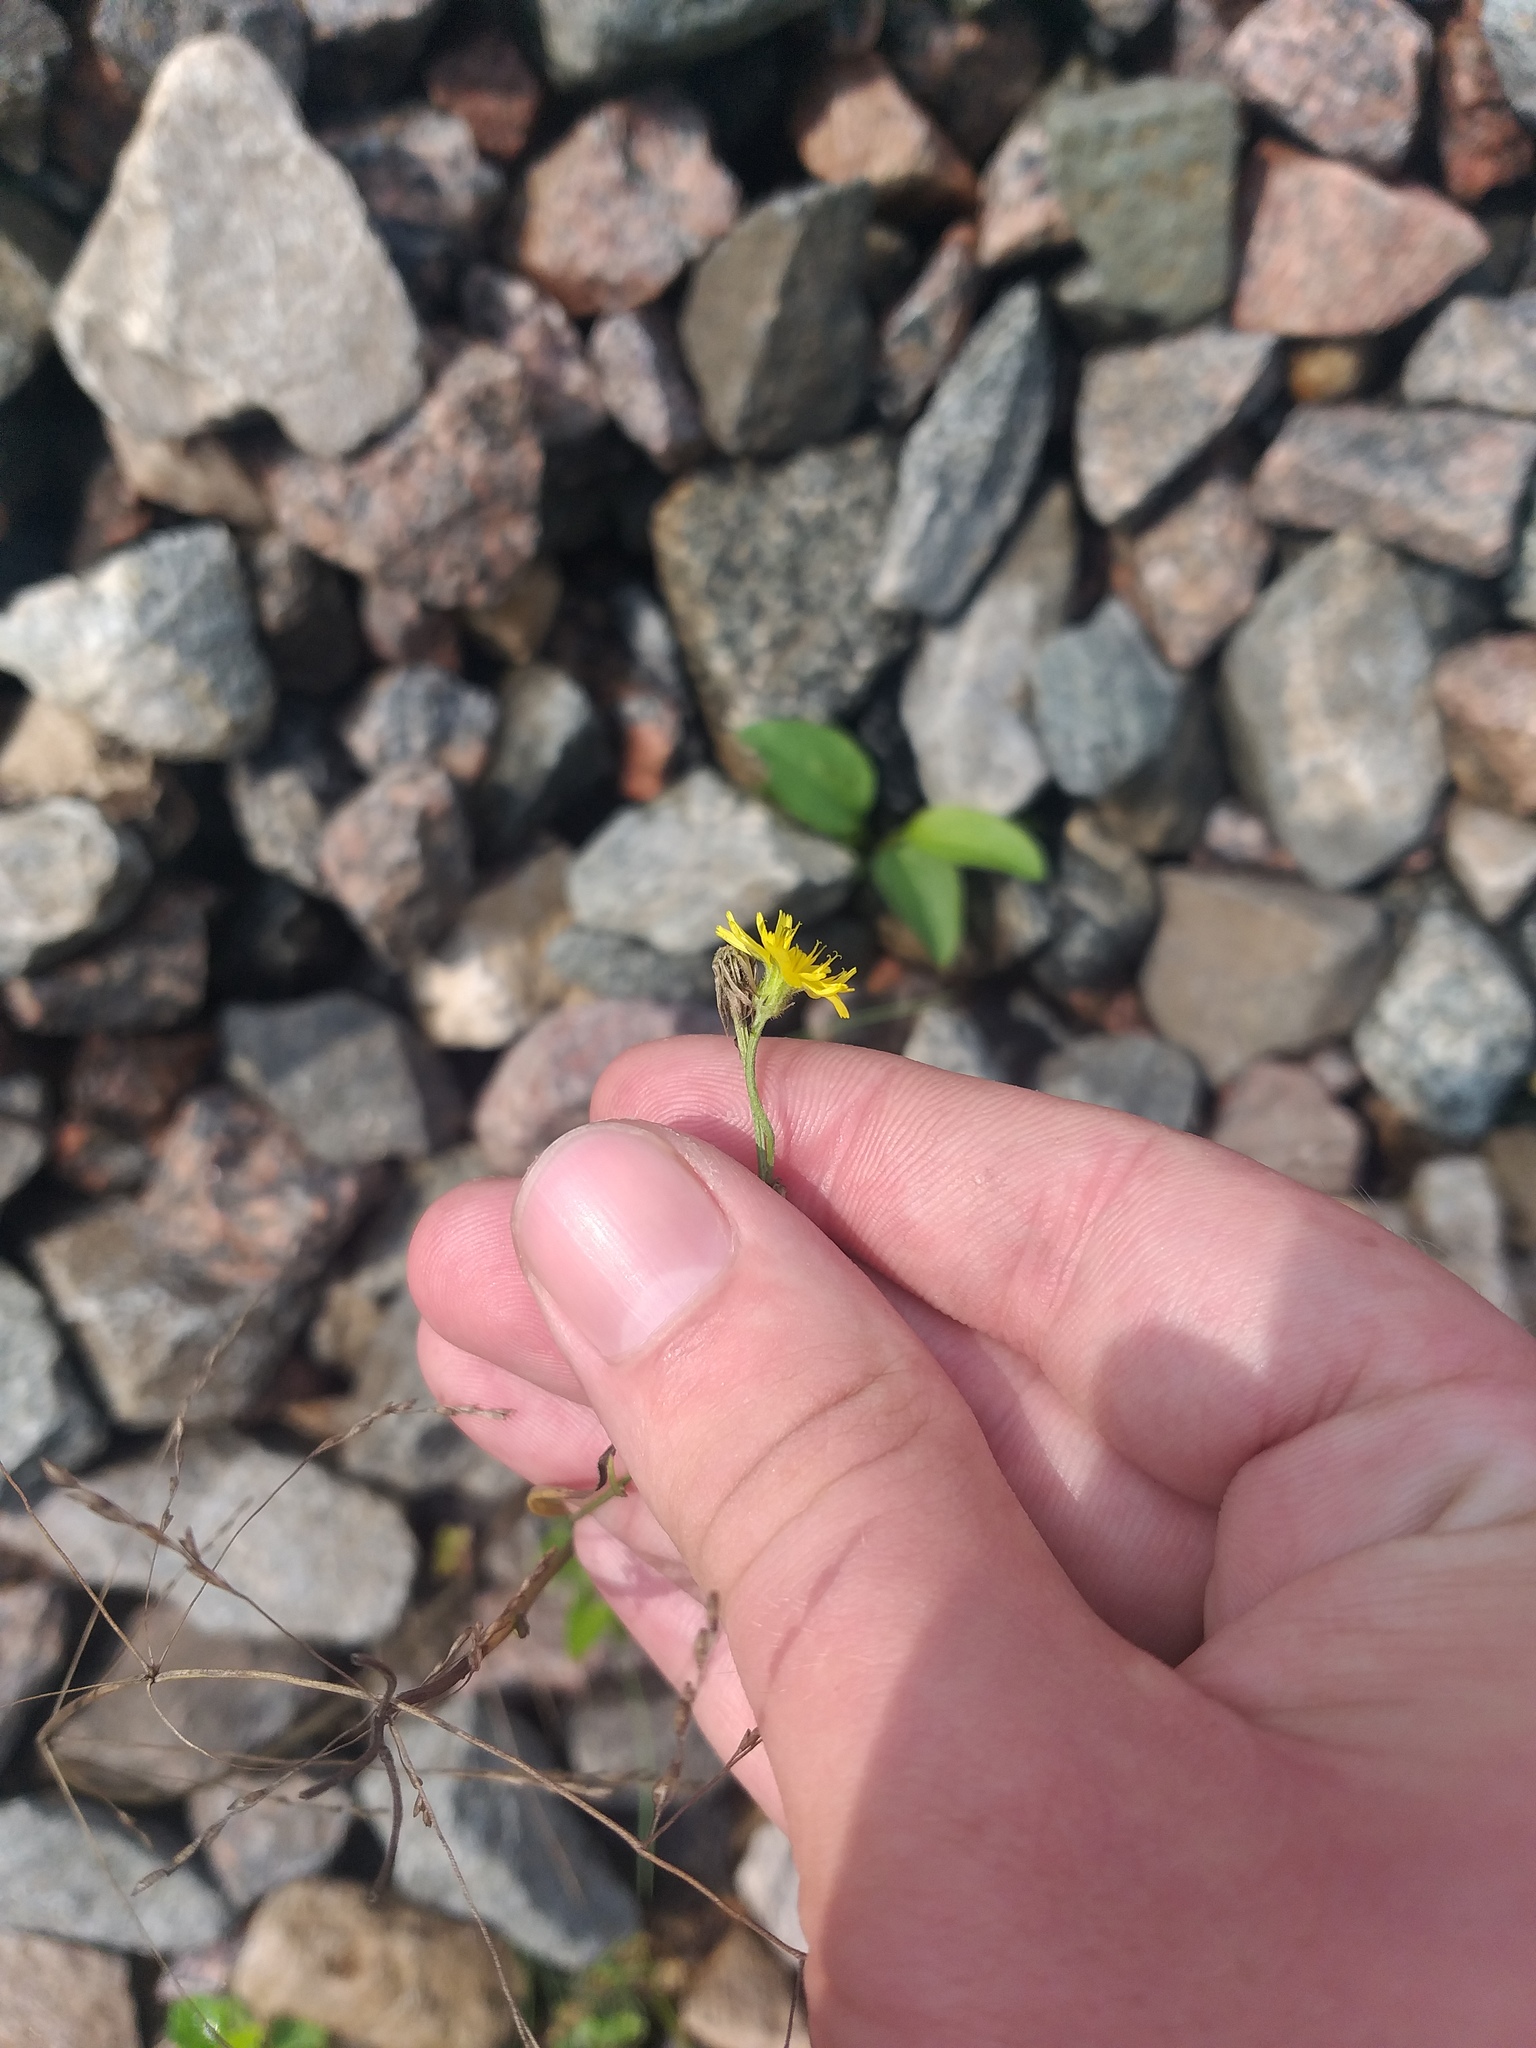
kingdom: Plantae
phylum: Tracheophyta
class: Magnoliopsida
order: Asterales
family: Asteraceae
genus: Crepis
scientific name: Crepis tectorum
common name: Narrow-leaved hawk's-beard
